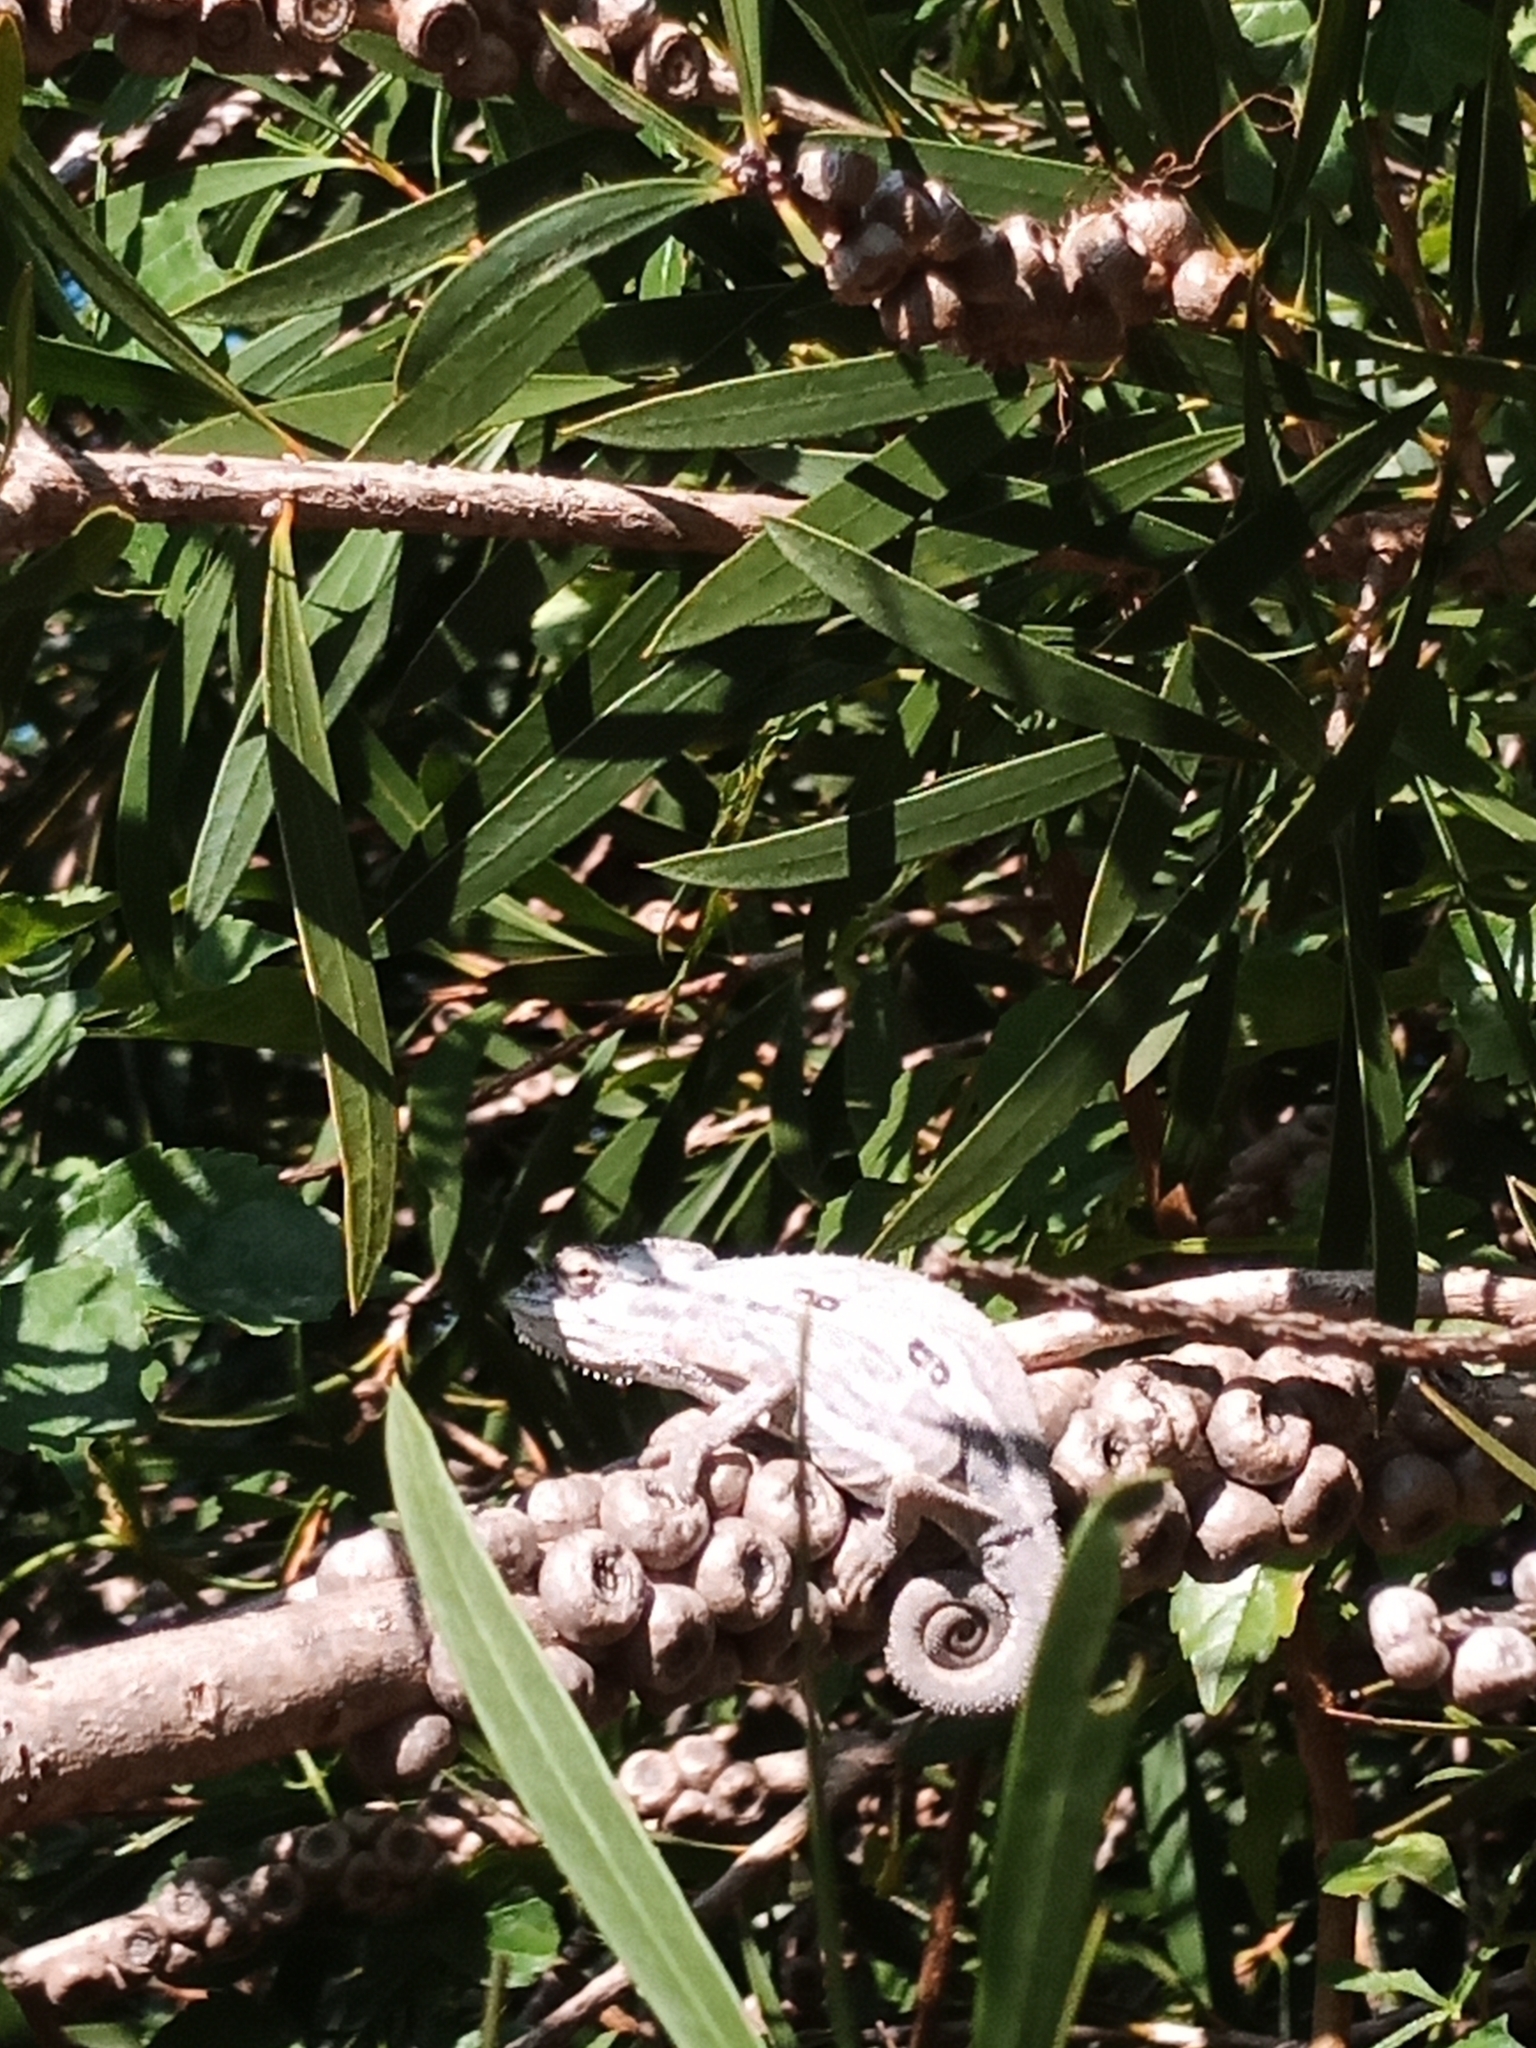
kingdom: Animalia
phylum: Chordata
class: Squamata
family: Chamaeleonidae
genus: Bradypodion
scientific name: Bradypodion pumilum
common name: Cape dwarf chameleon
